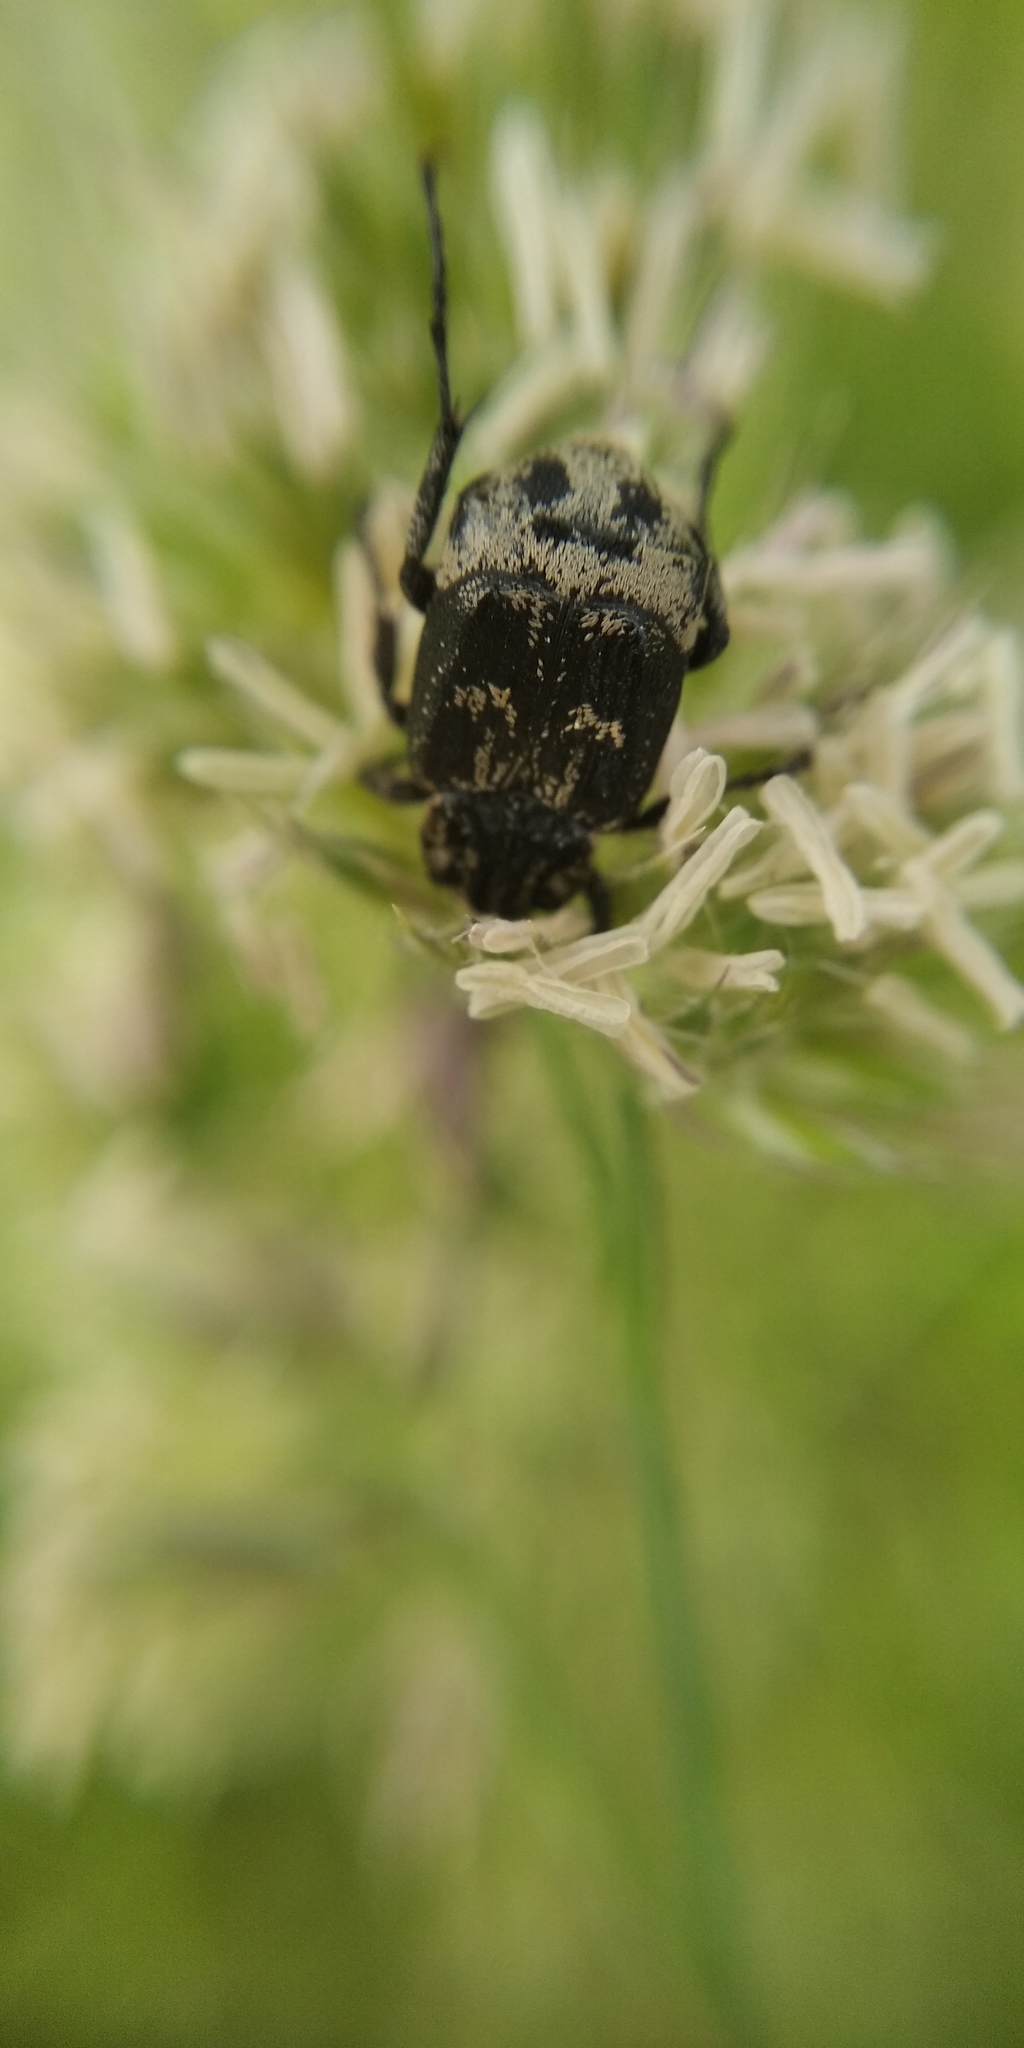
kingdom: Animalia
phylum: Arthropoda
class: Insecta
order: Coleoptera
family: Scarabaeidae
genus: Valgus
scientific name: Valgus hemipterus
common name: Bug flower chafer
